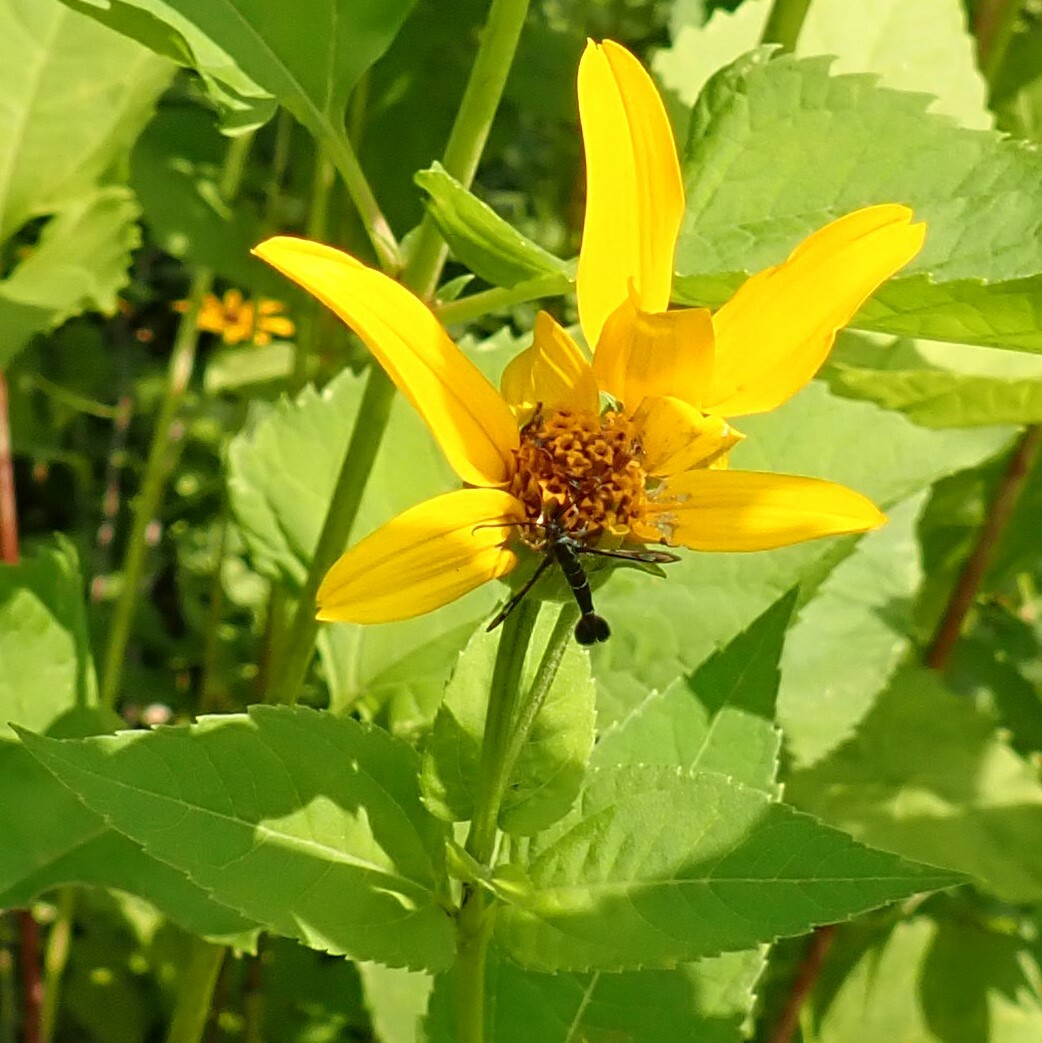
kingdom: Animalia
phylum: Arthropoda
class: Insecta
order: Lepidoptera
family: Sesiidae
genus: Carmenta
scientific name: Carmenta ithacae
